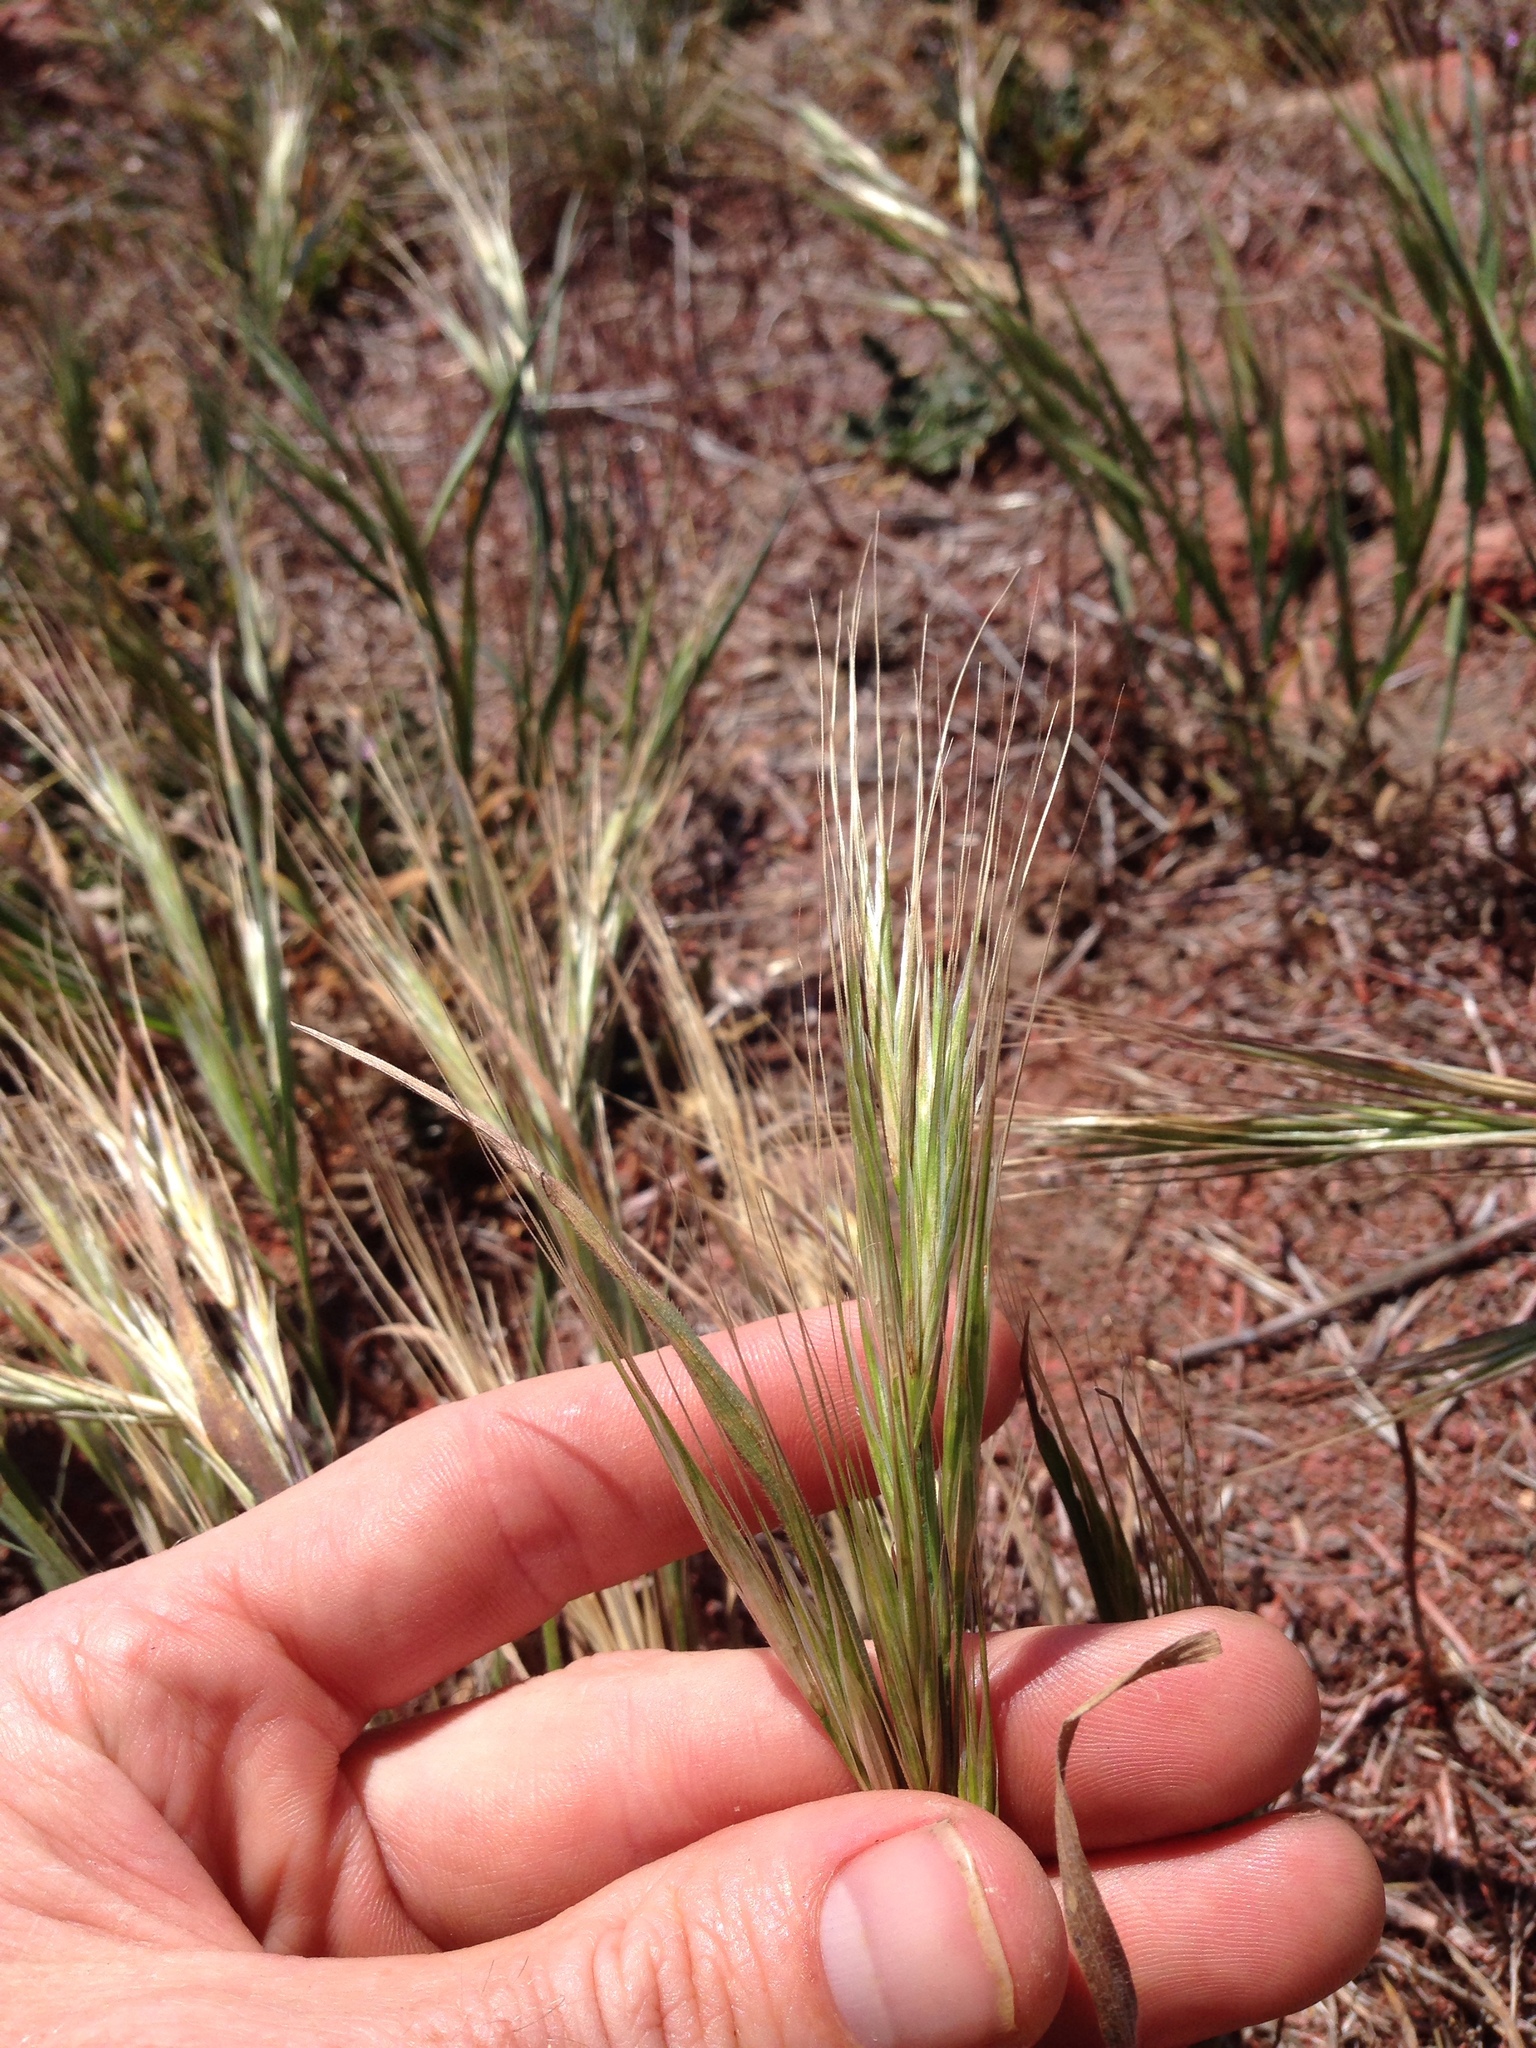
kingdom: Plantae
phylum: Tracheophyta
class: Liliopsida
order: Poales
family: Poaceae
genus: Bromus
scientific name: Bromus diandrus
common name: Ripgut brome
